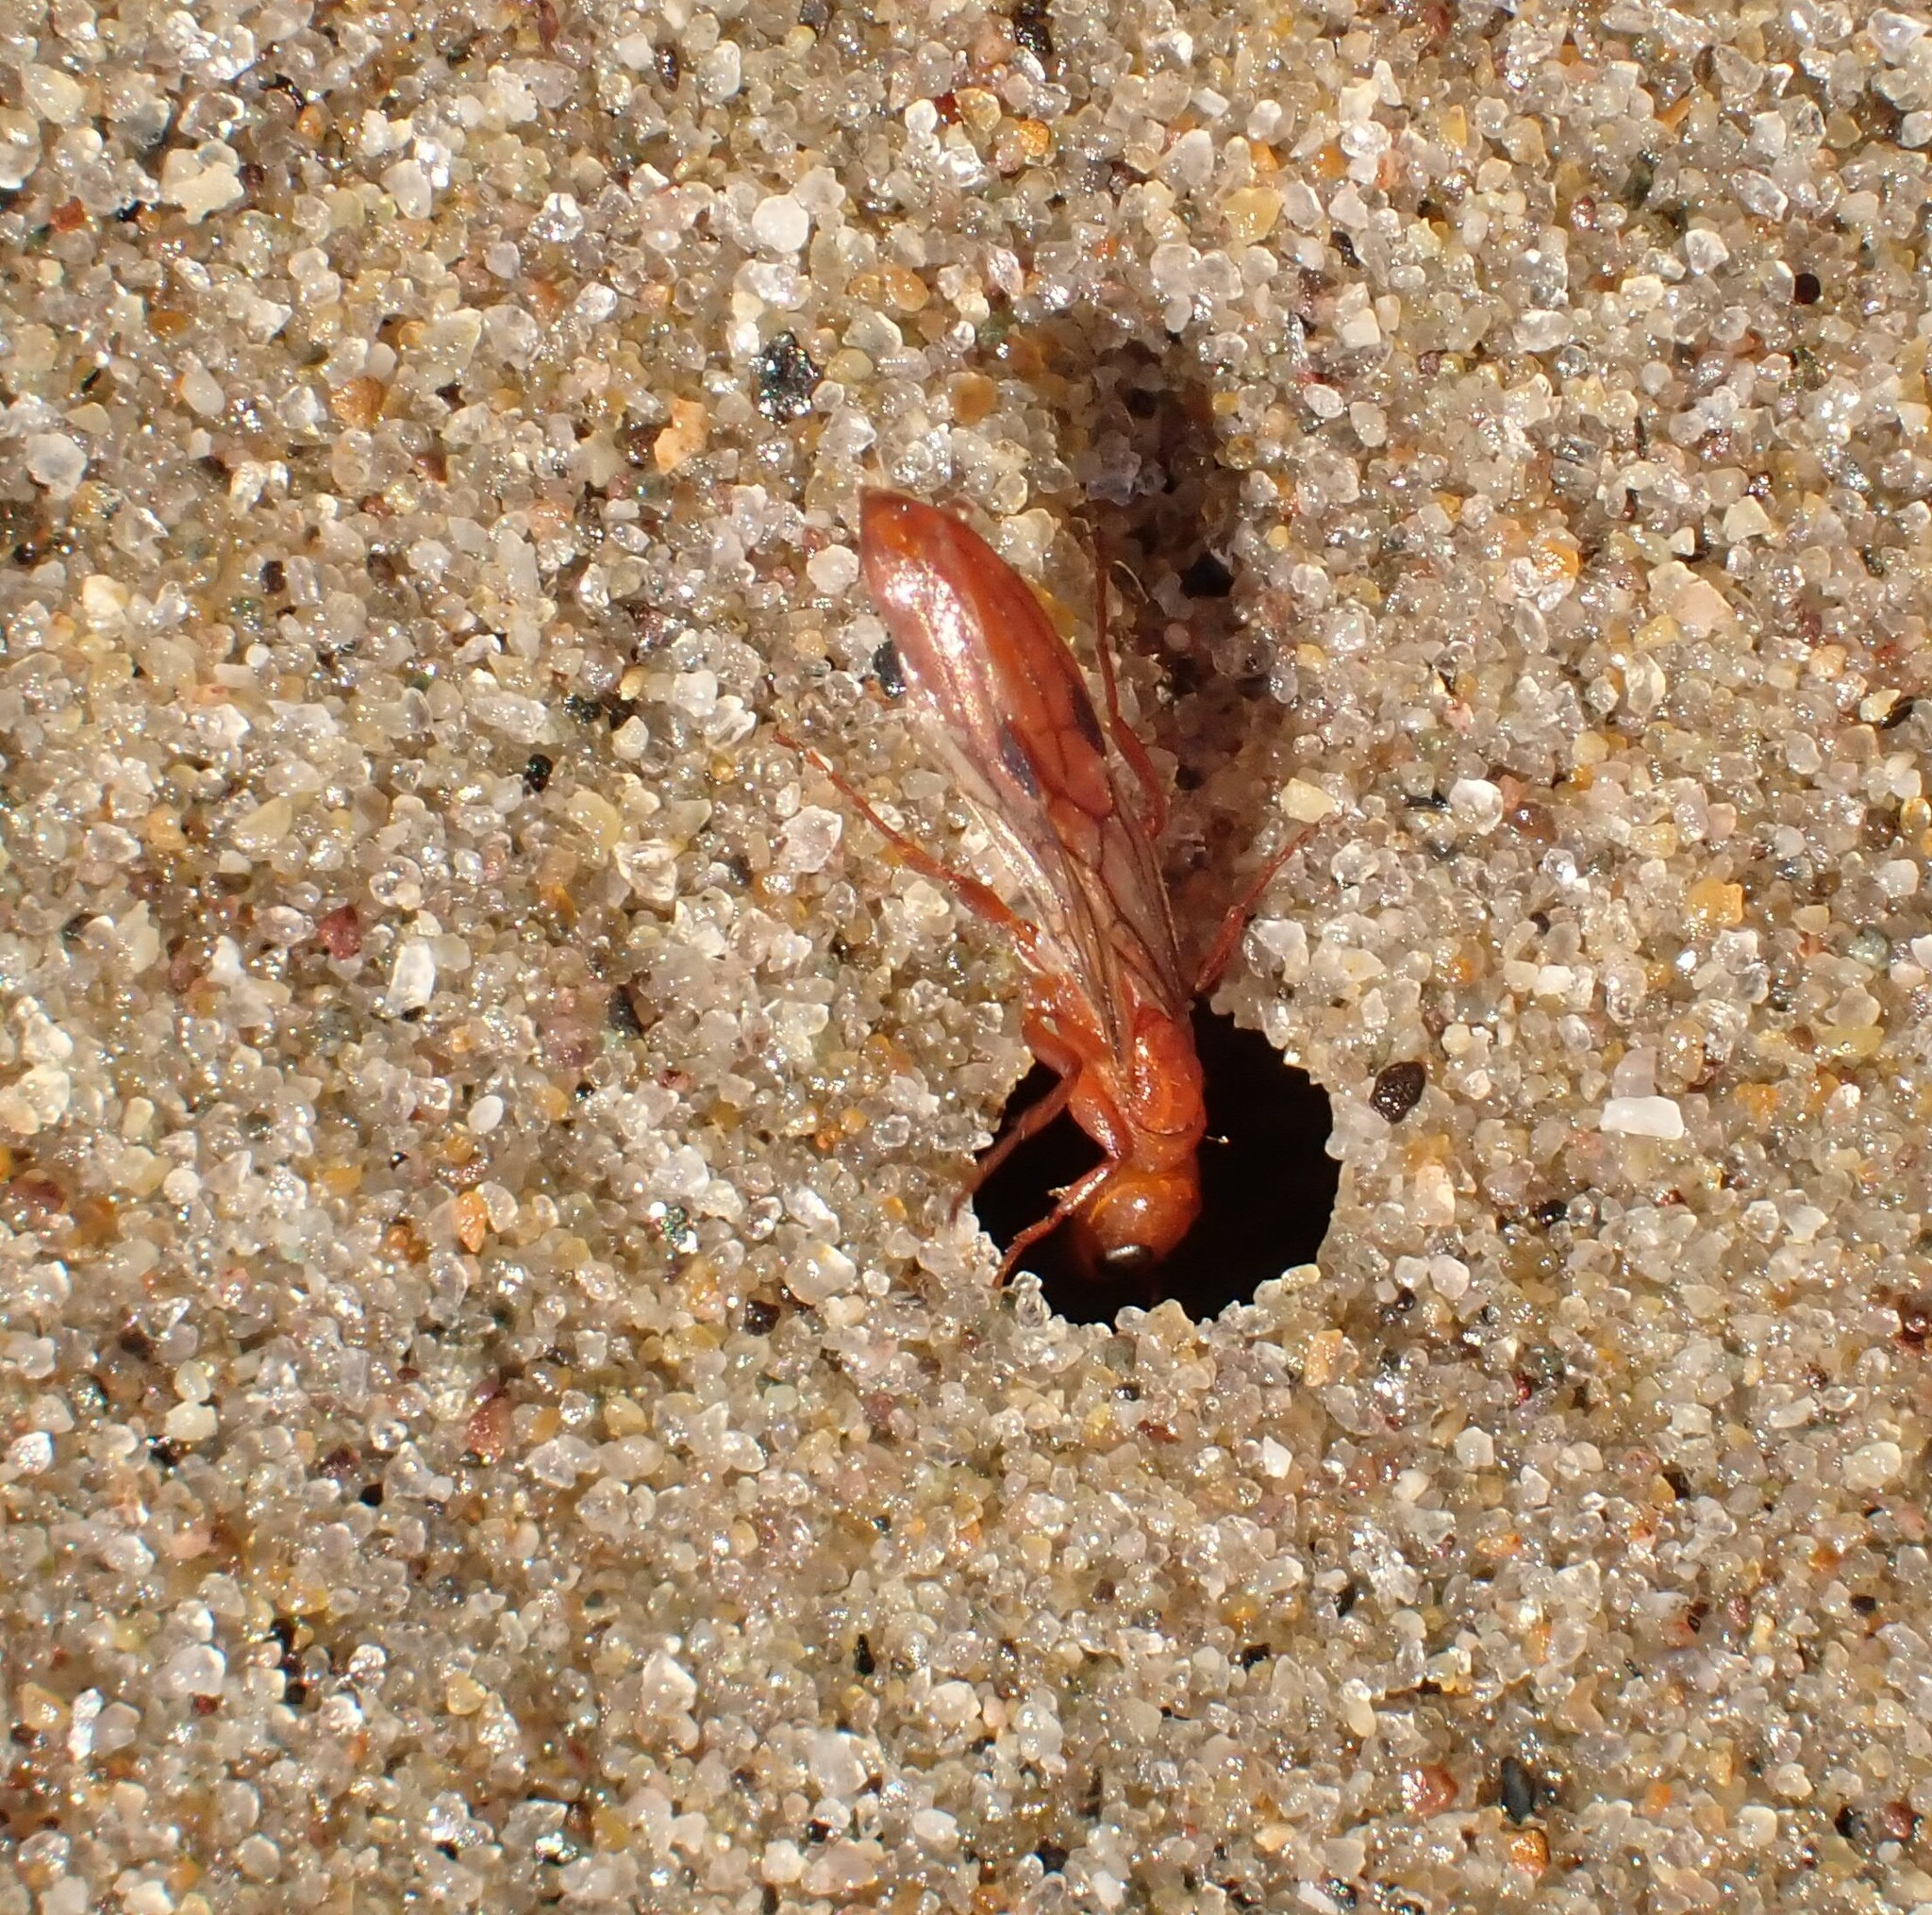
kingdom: Animalia
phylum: Arthropoda
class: Insecta
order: Hymenoptera
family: Formicidae
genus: Pseudomyrmex
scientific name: Pseudomyrmex apache
